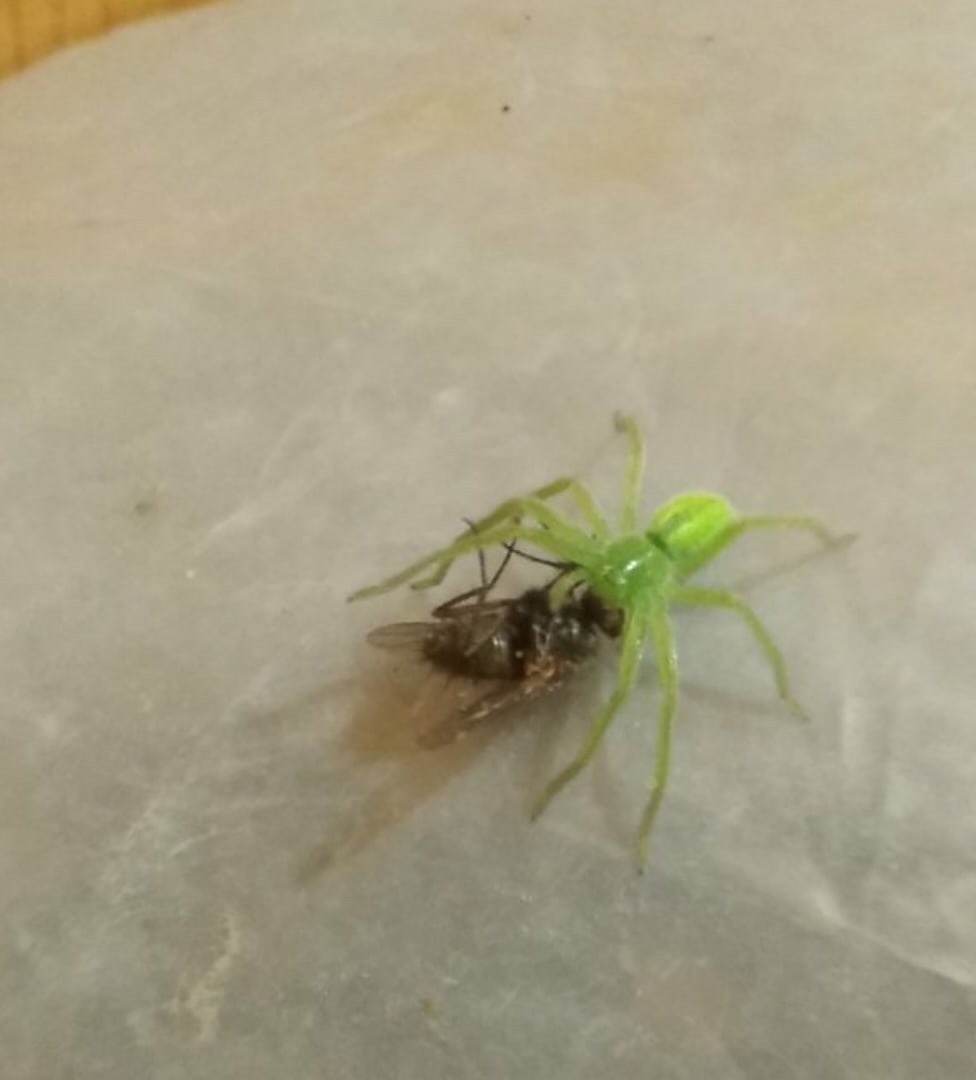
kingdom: Animalia
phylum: Arthropoda
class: Arachnida
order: Araneae
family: Sparassidae
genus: Micrommata
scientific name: Micrommata virescens
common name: Green spider
